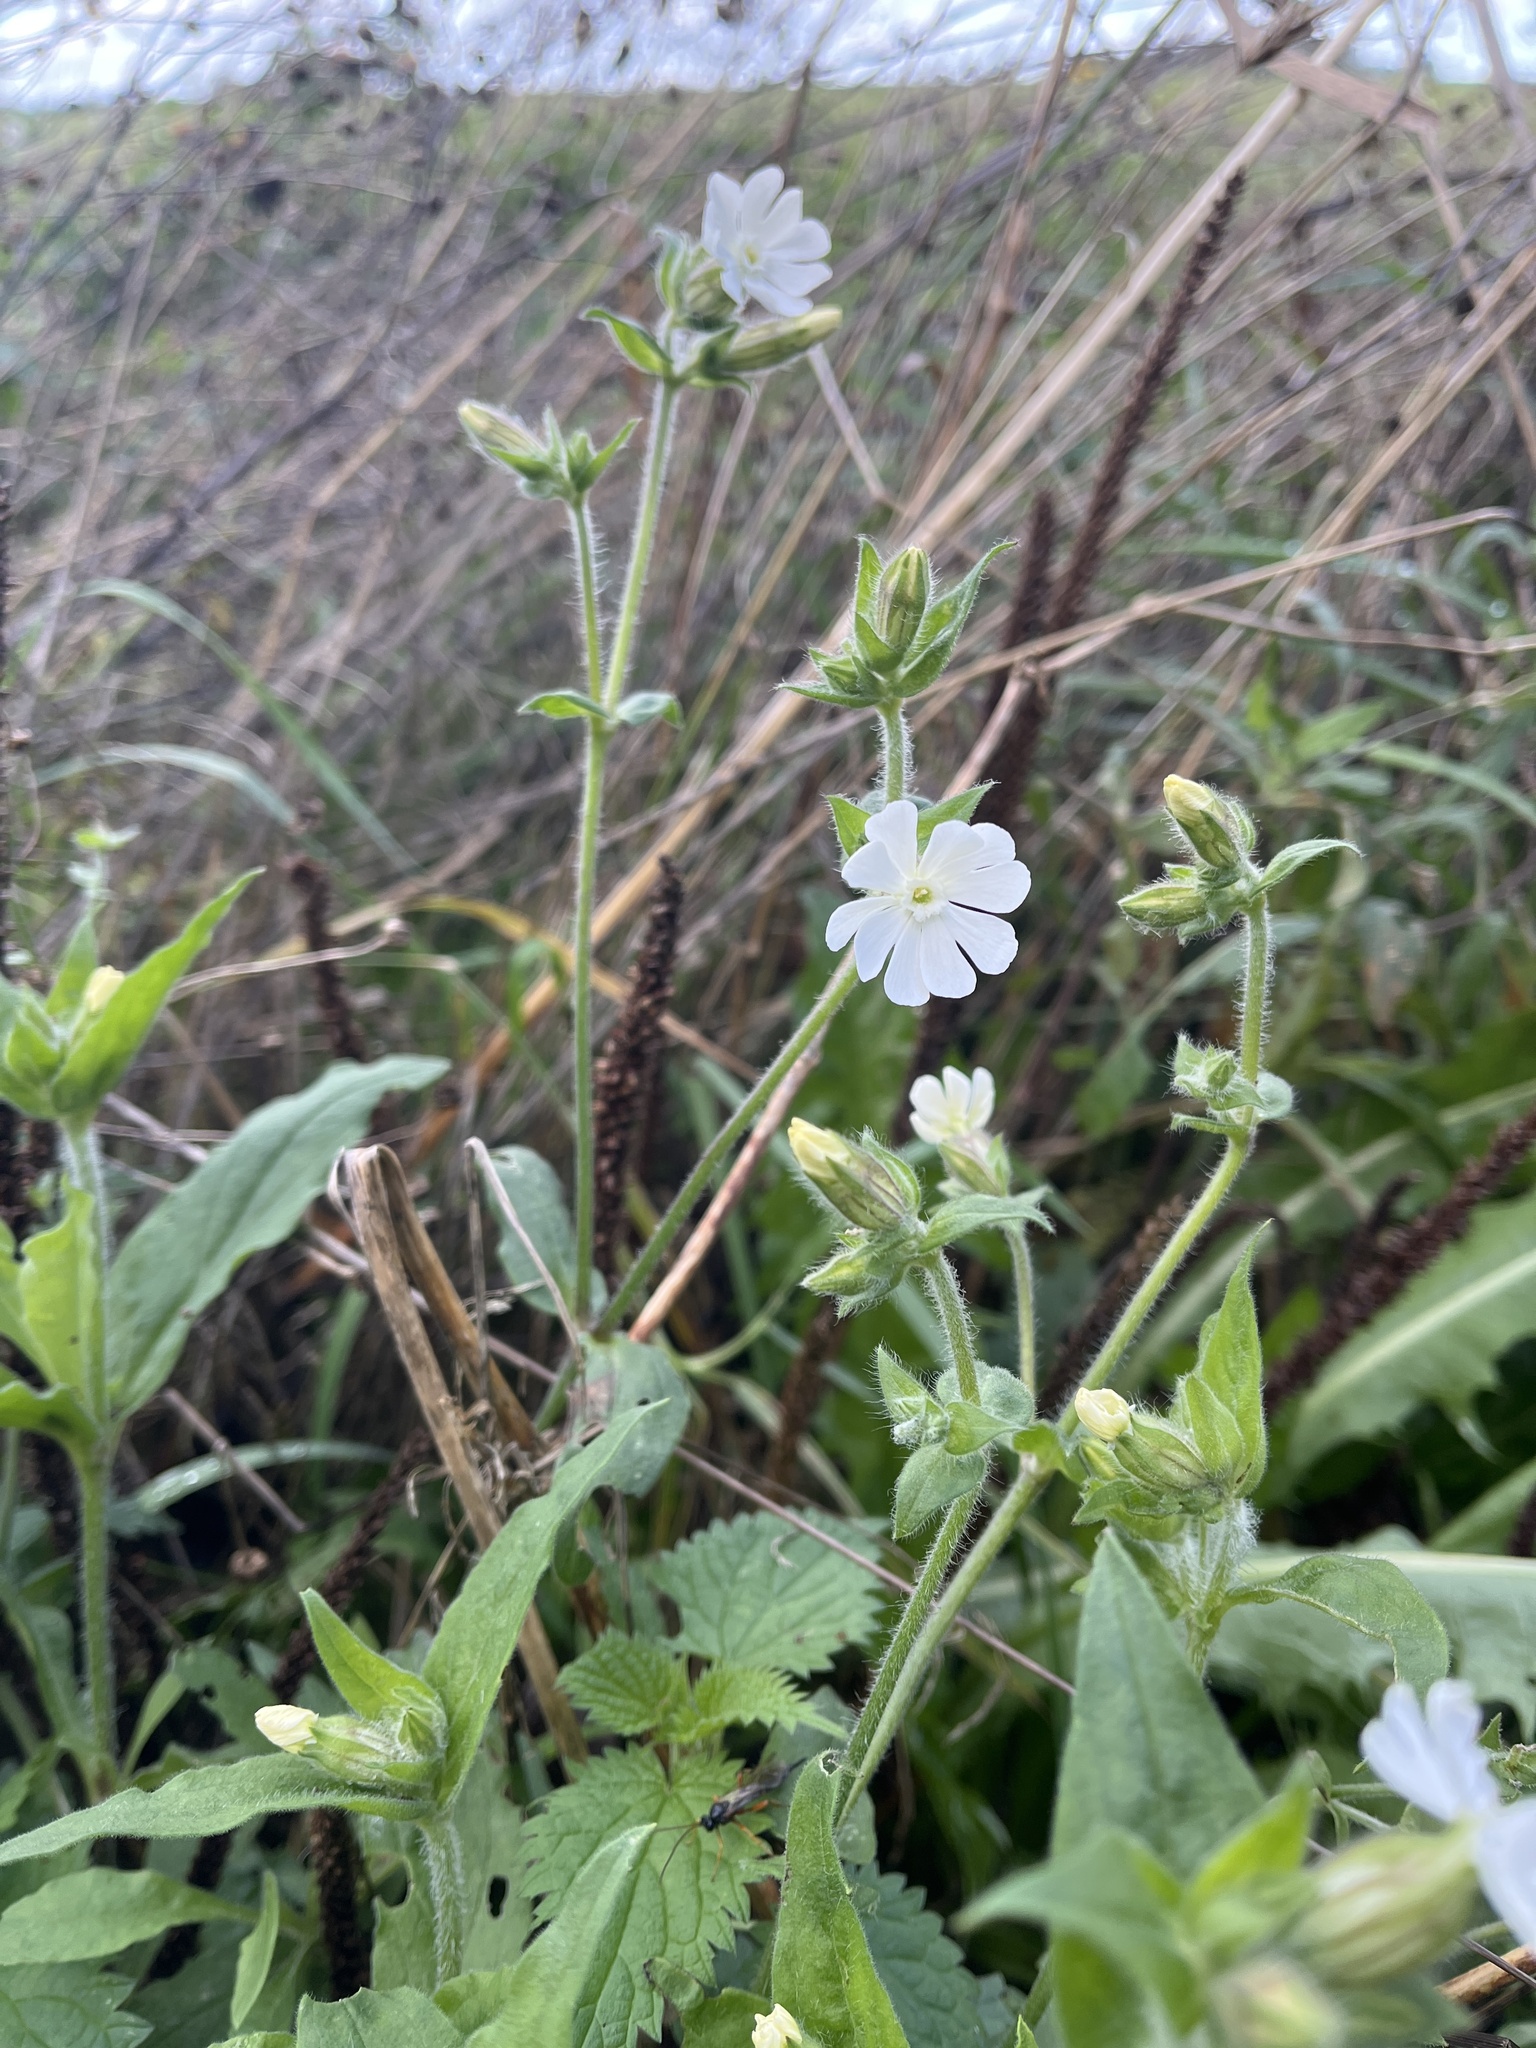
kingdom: Plantae
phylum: Tracheophyta
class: Magnoliopsida
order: Caryophyllales
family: Caryophyllaceae
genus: Silene
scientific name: Silene latifolia
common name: White campion
